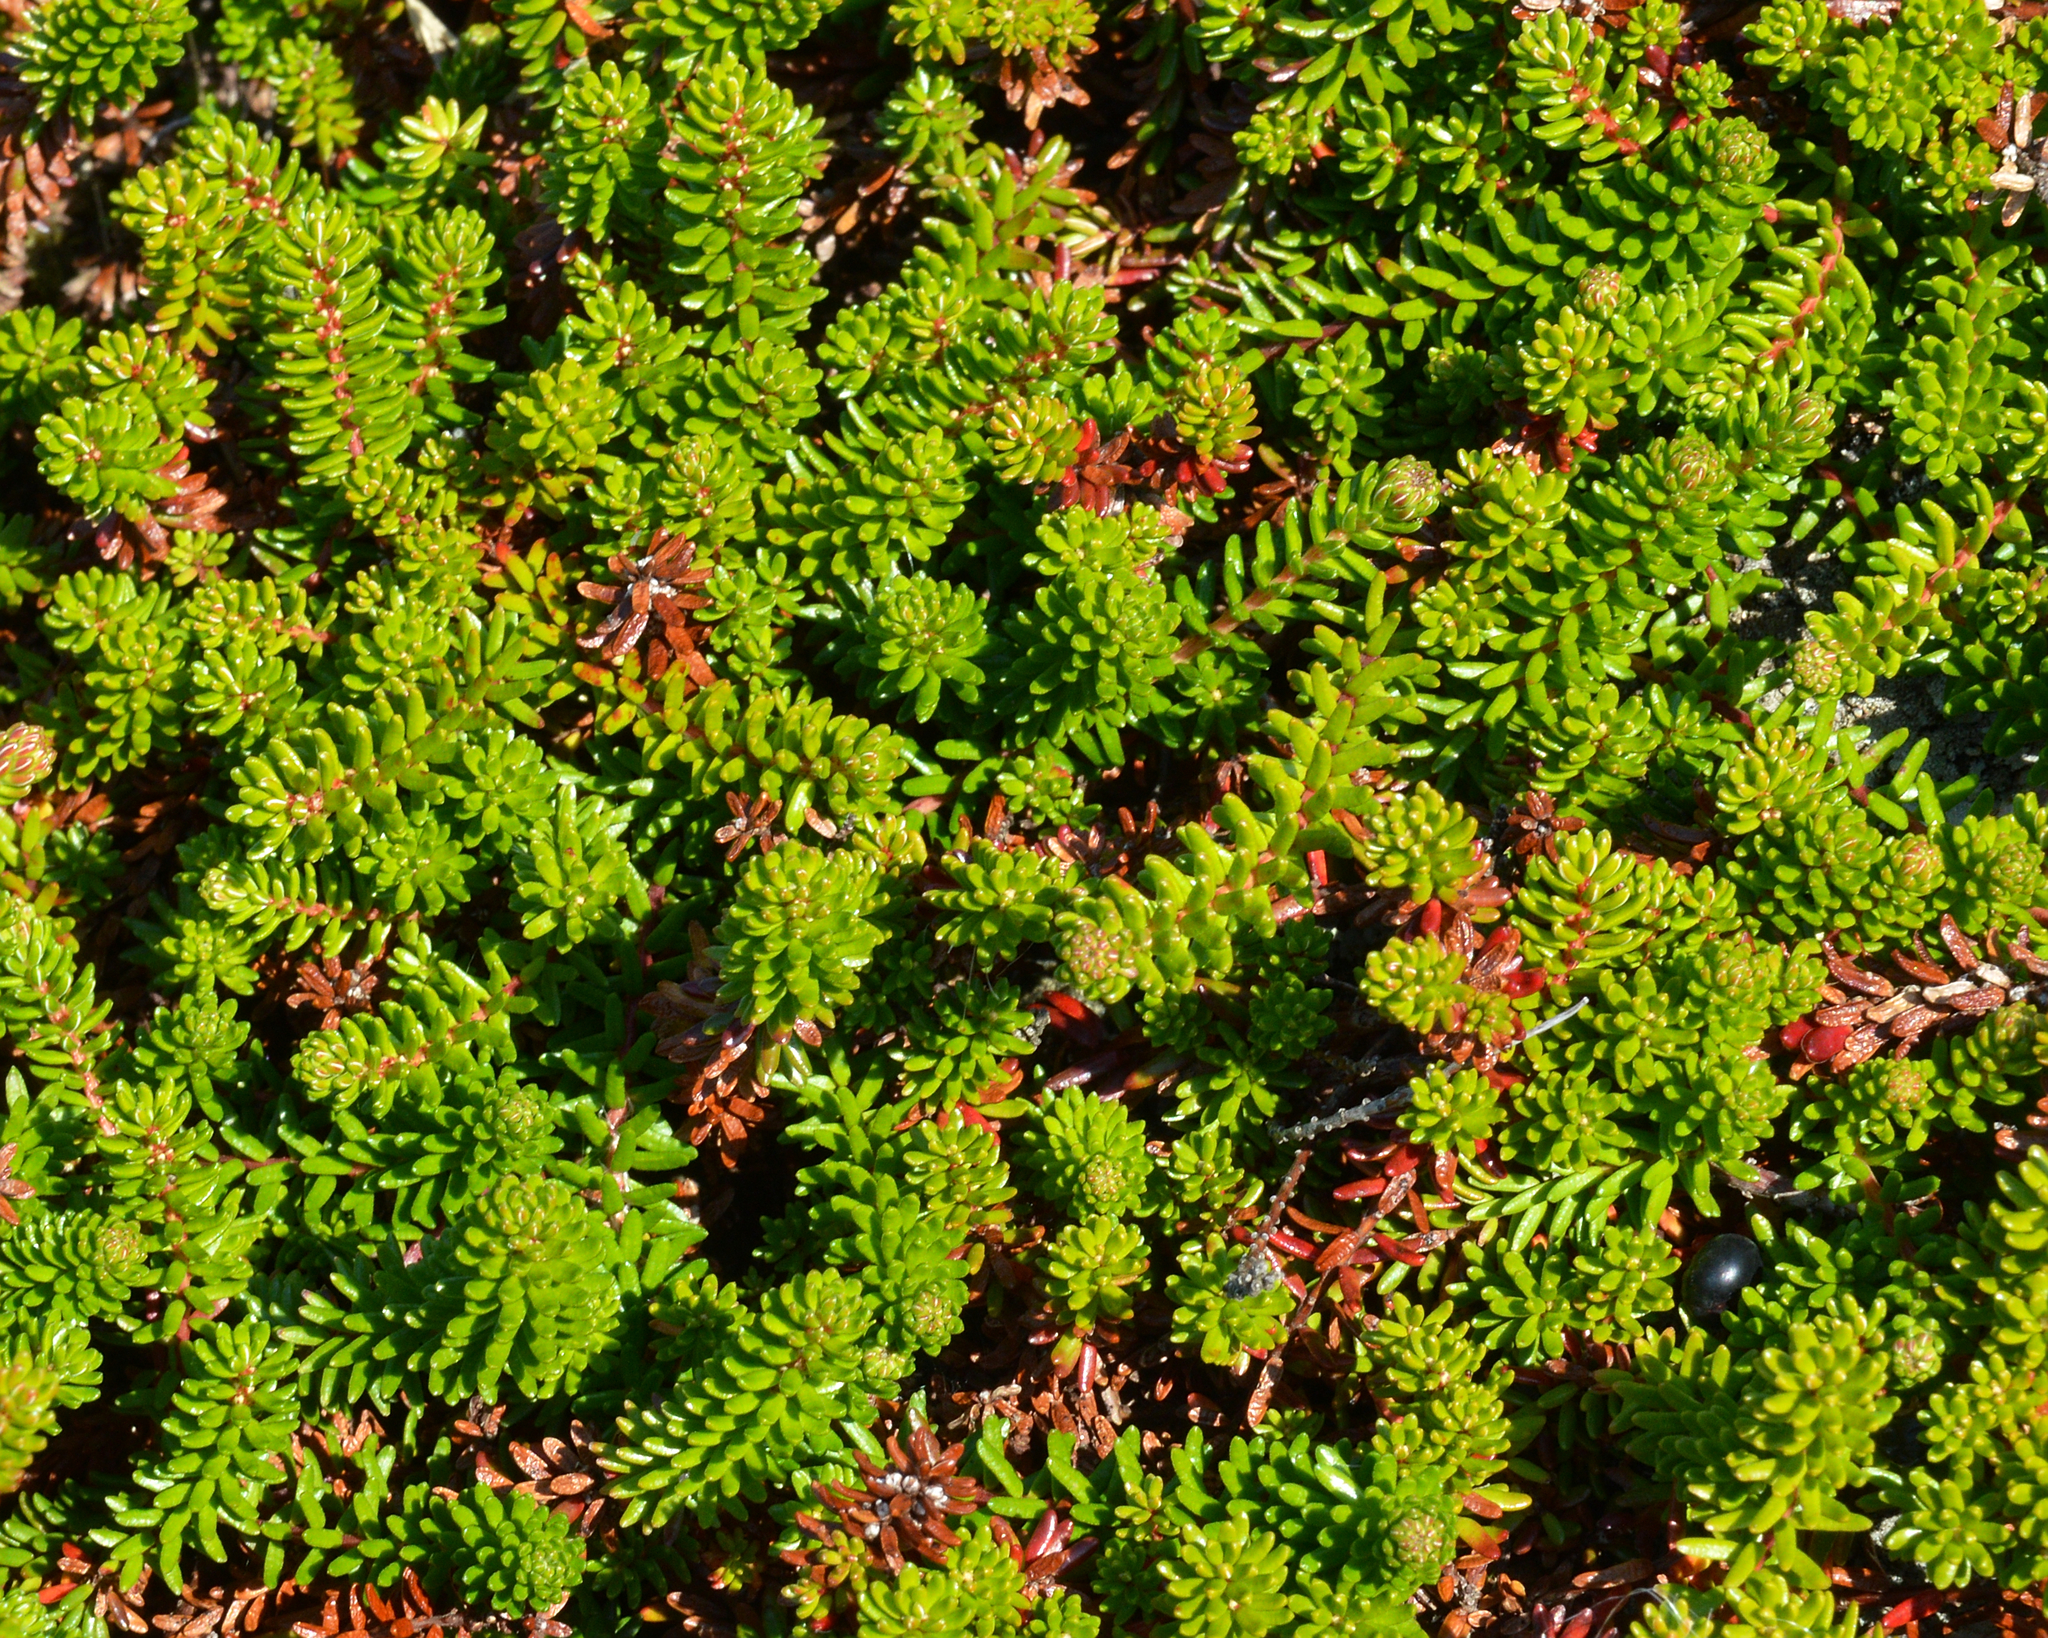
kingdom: Plantae
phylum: Tracheophyta
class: Magnoliopsida
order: Ericales
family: Ericaceae
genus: Empetrum
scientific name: Empetrum nigrum
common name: Black crowberry
